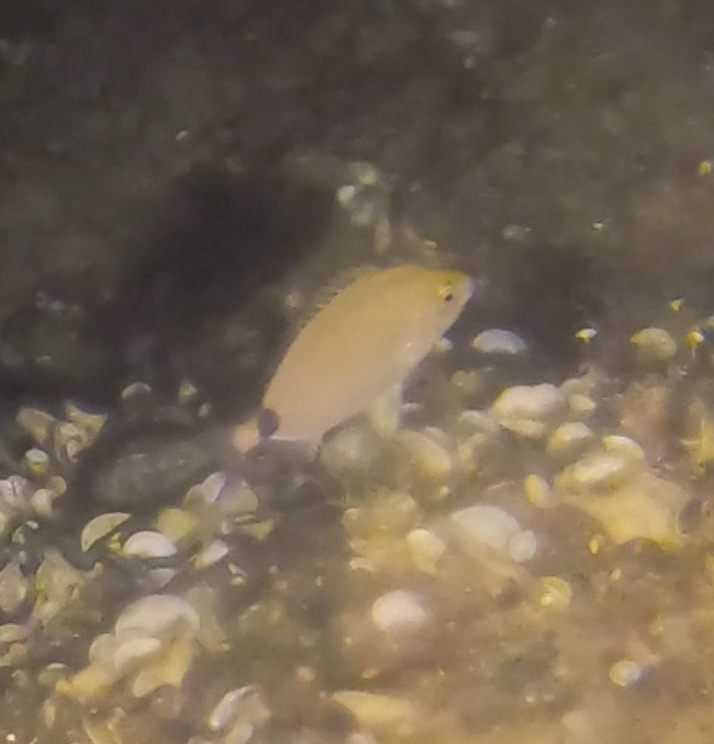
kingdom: Animalia
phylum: Chordata
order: Perciformes
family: Sparidae
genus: Diplodus
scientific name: Diplodus annularis
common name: Annular seabream
